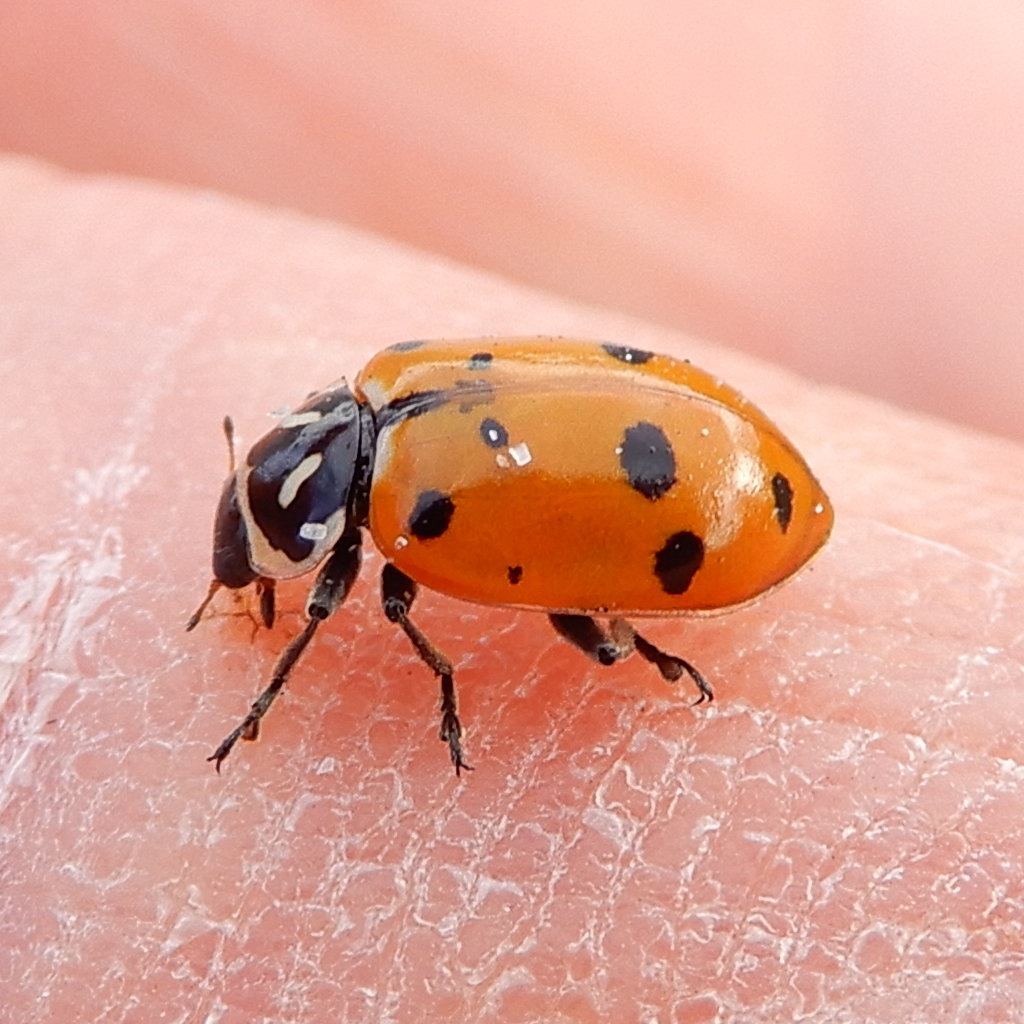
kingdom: Animalia
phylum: Arthropoda
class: Insecta
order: Coleoptera
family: Coccinellidae
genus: Hippodamia
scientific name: Hippodamia convergens
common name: Convergent lady beetle
